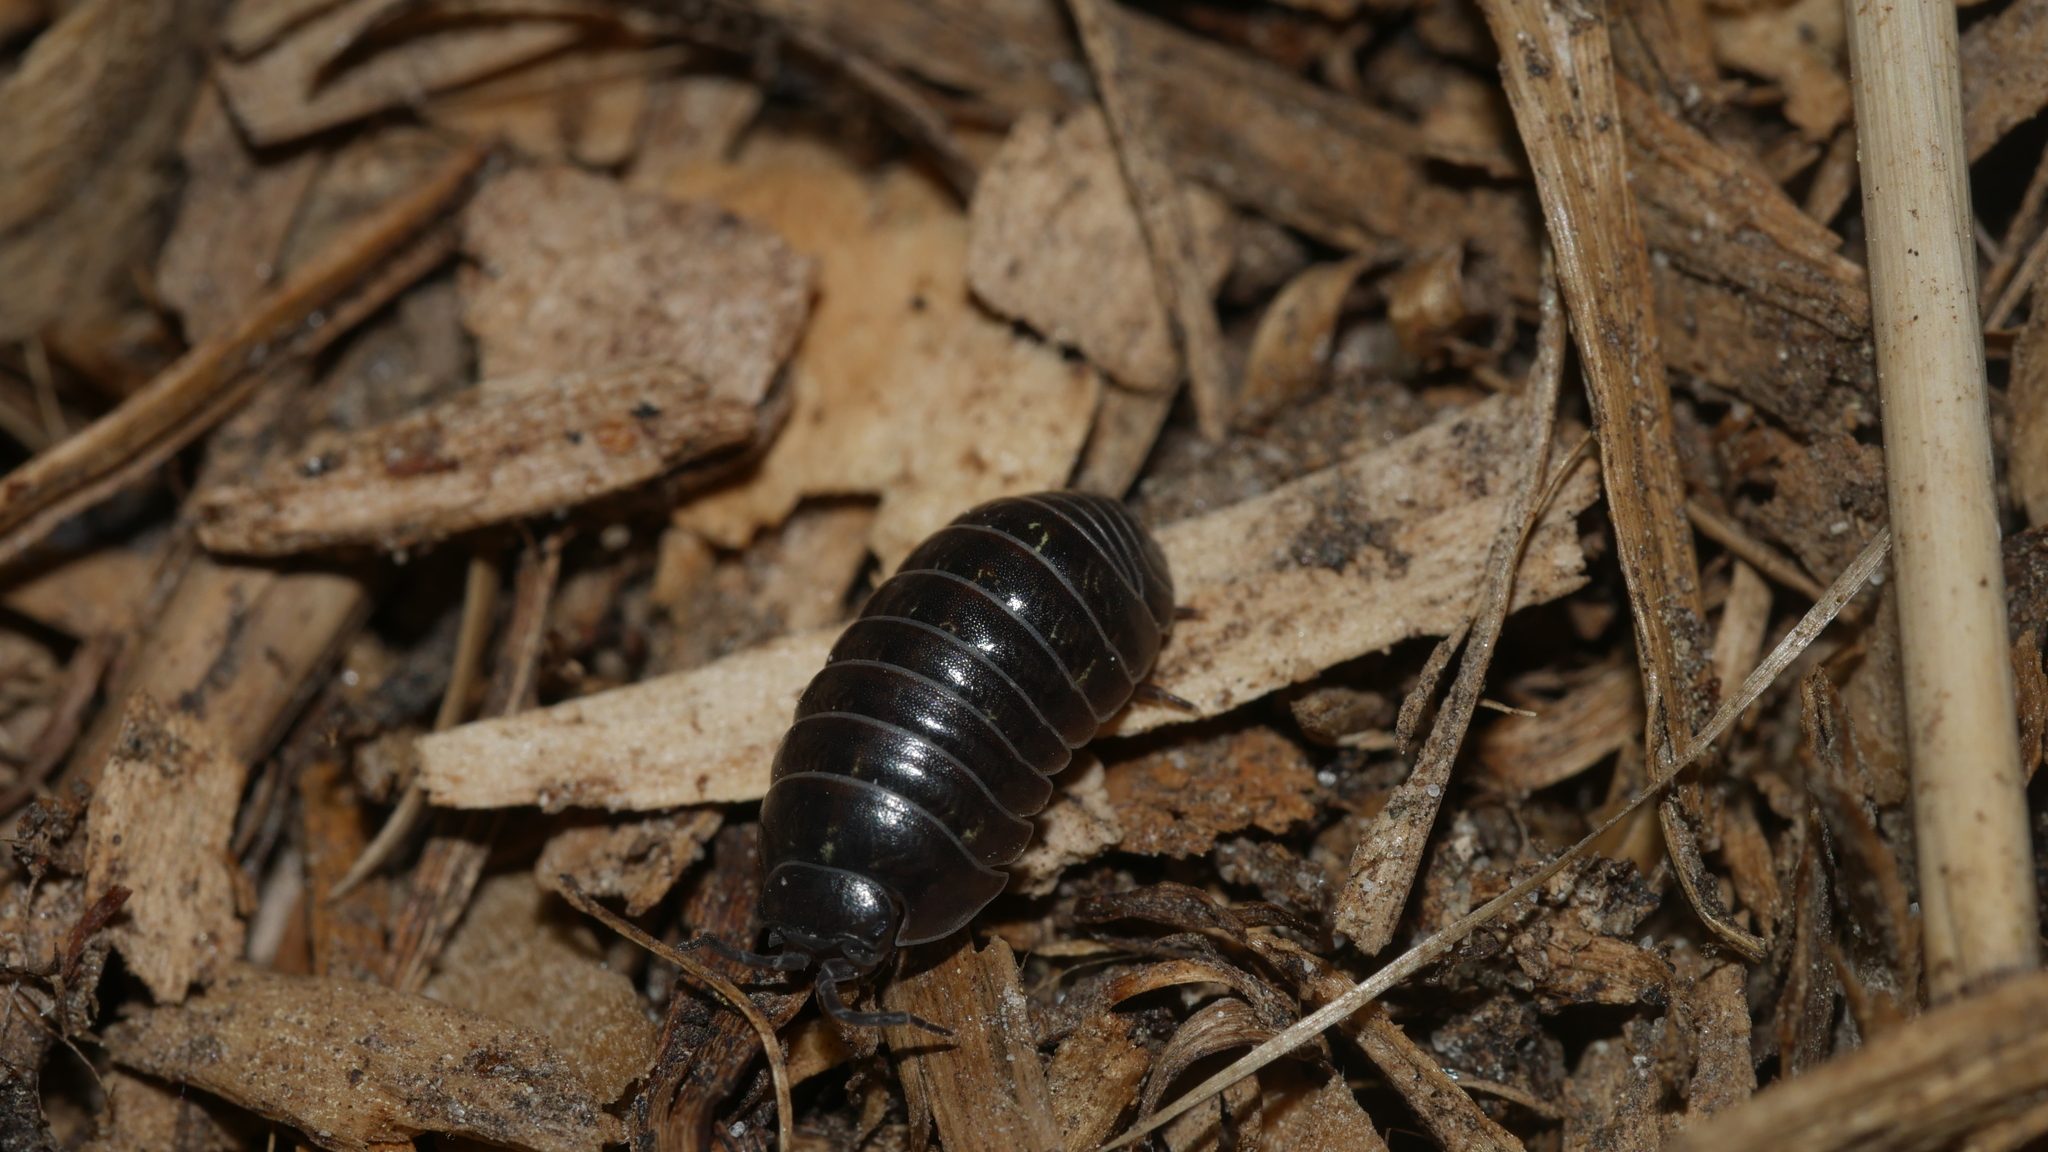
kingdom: Animalia
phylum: Arthropoda
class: Malacostraca
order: Isopoda
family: Armadillidiidae
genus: Armadillidium
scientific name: Armadillidium vulgare
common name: Common pill woodlouse
